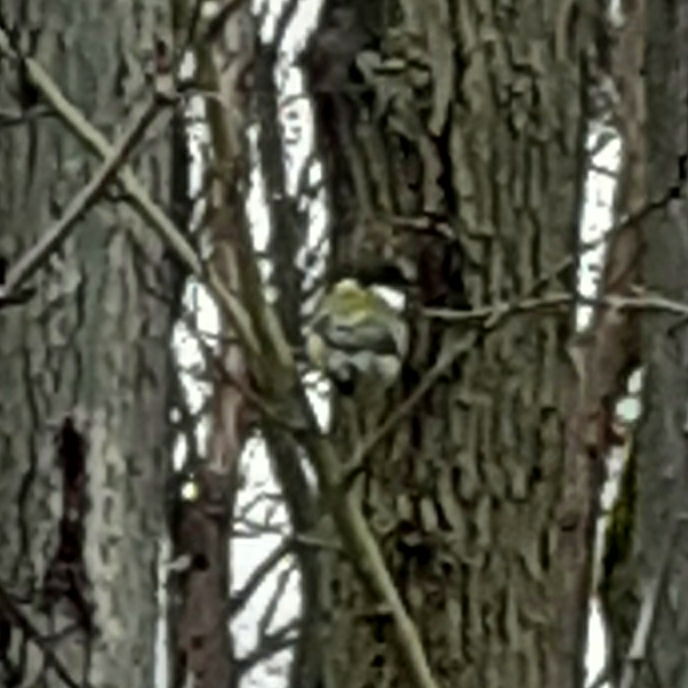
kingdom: Animalia
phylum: Chordata
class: Aves
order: Passeriformes
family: Paridae
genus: Parus
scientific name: Parus major
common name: Great tit
